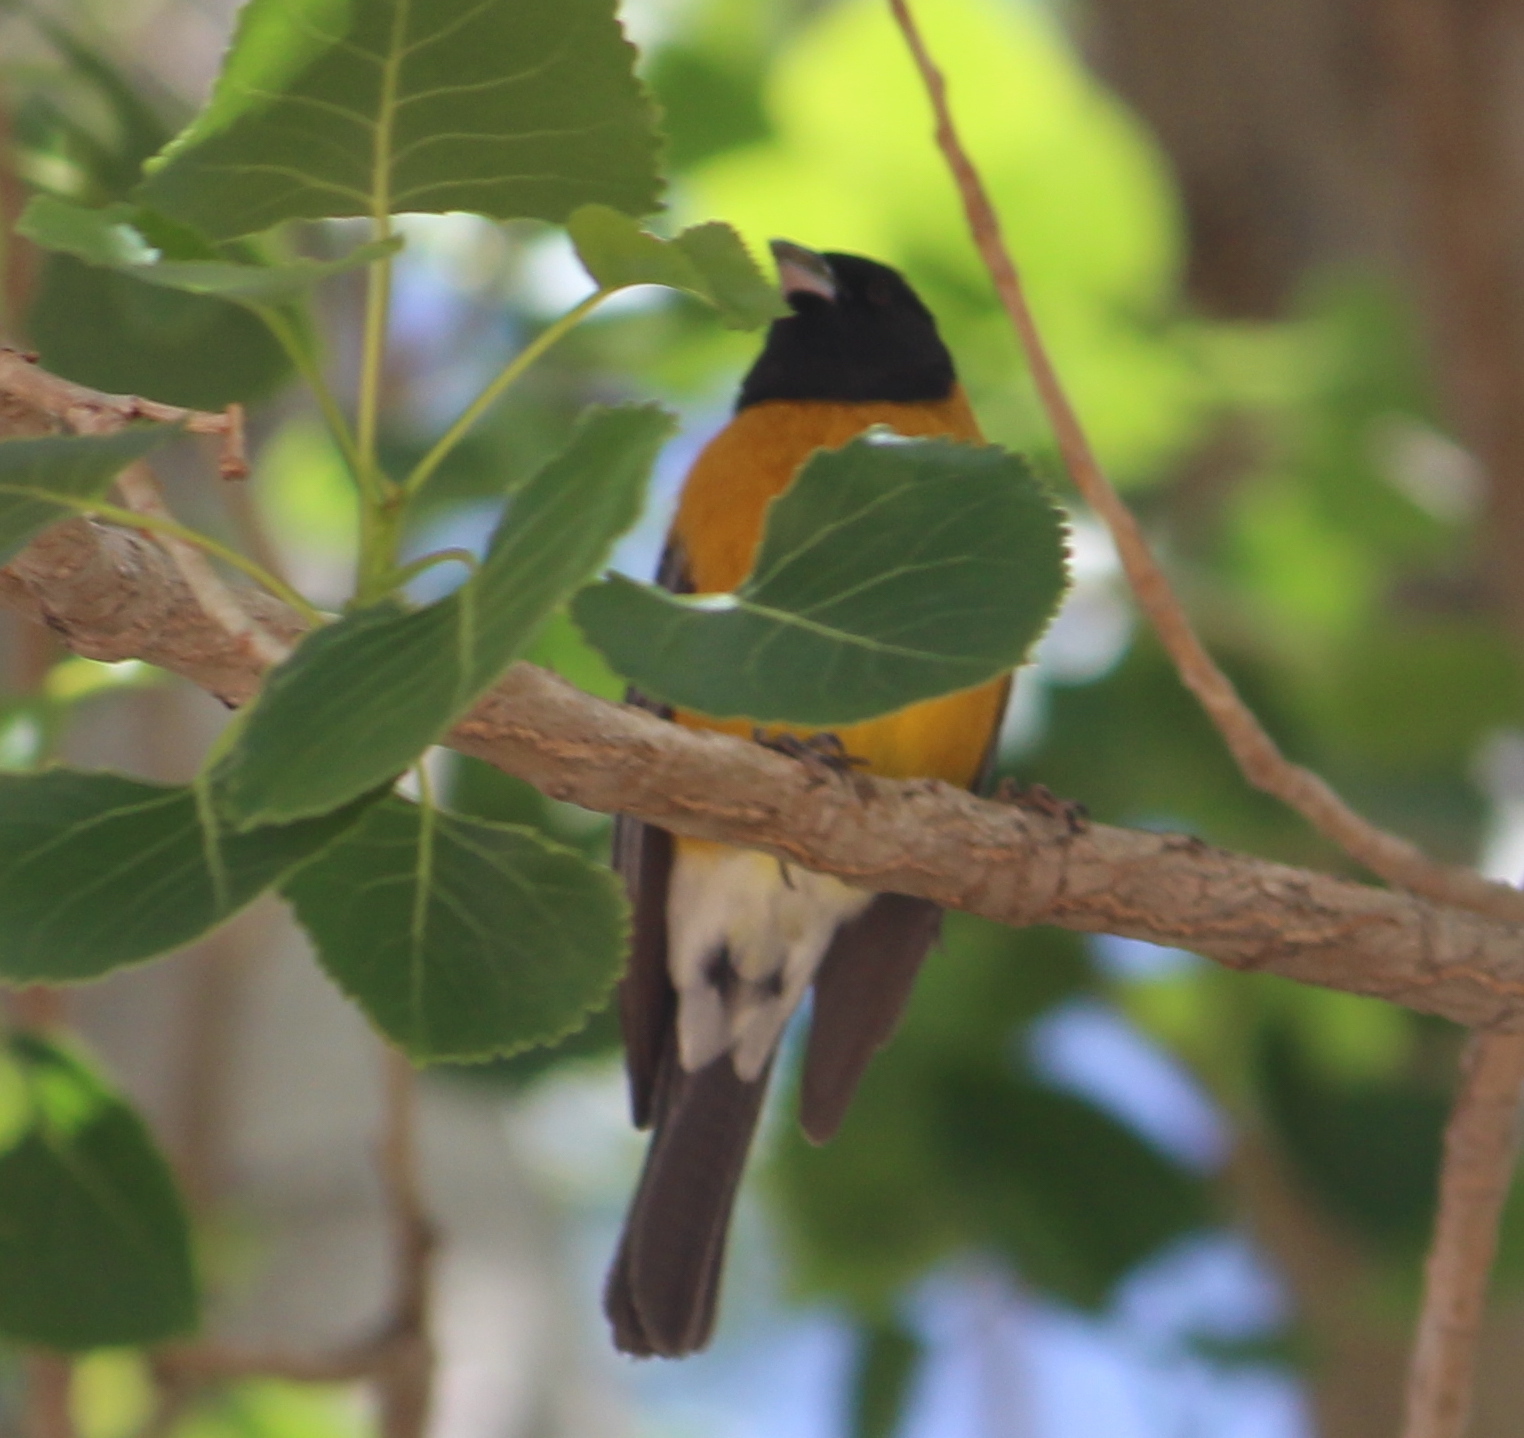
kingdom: Animalia
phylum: Chordata
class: Aves
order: Passeriformes
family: Thraupidae
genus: Phrygilus
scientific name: Phrygilus atriceps
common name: Black-hooded sierra finch
